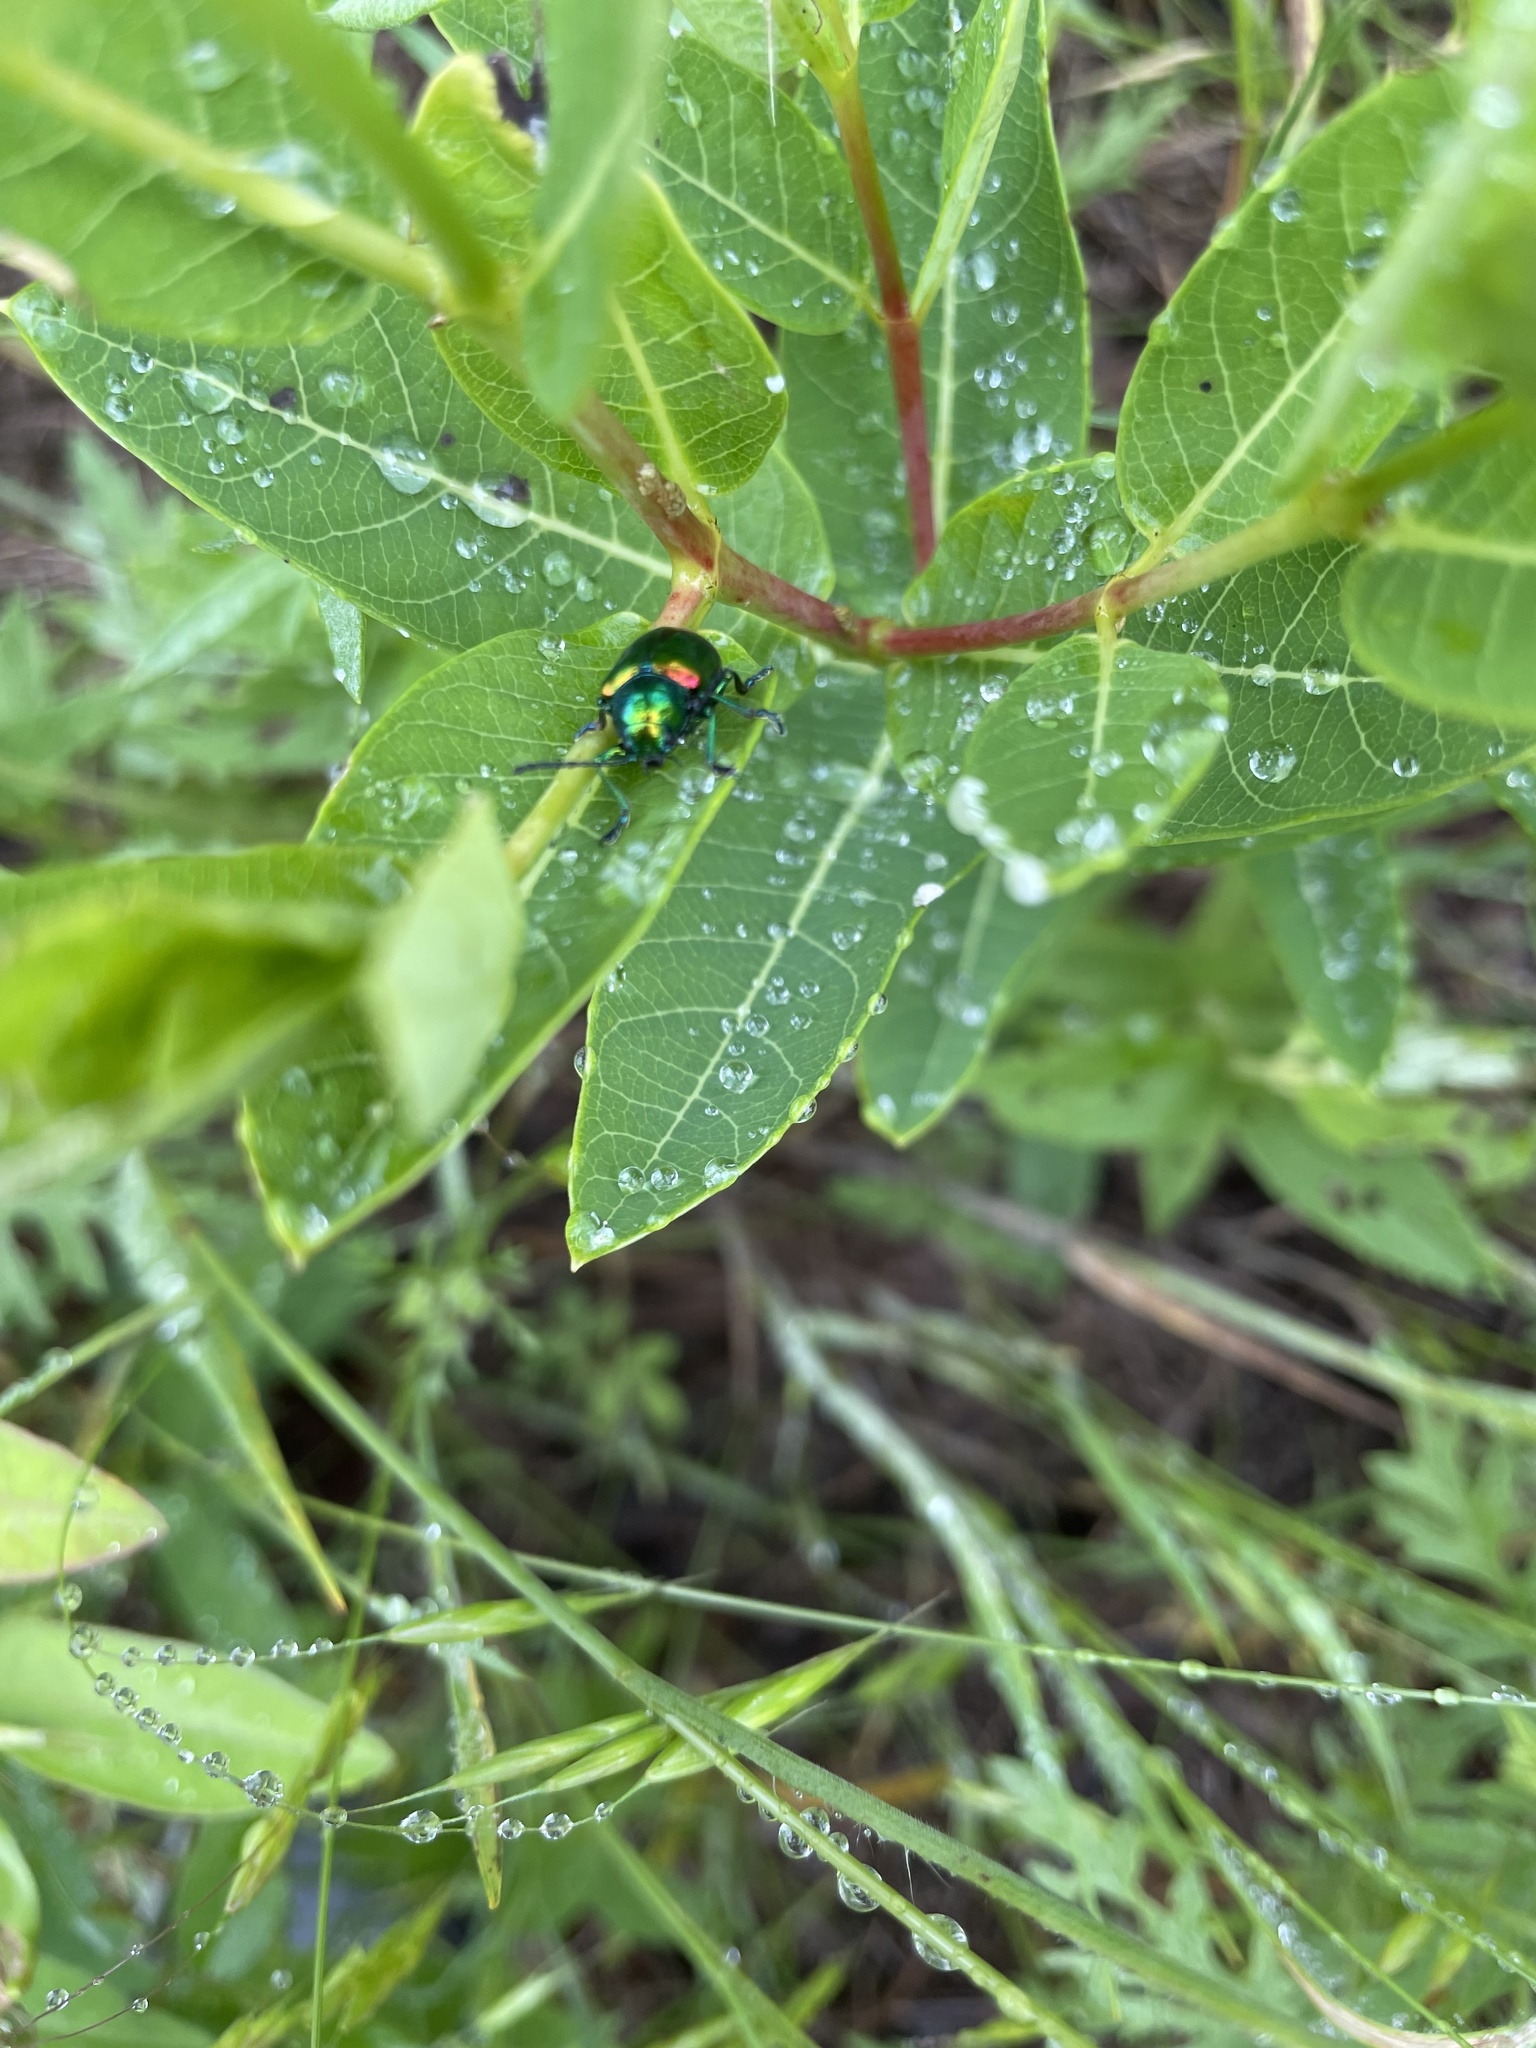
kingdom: Animalia
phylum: Arthropoda
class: Insecta
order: Coleoptera
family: Chrysomelidae
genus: Chrysochus
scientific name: Chrysochus auratus
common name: Dogbane leaf beetle
